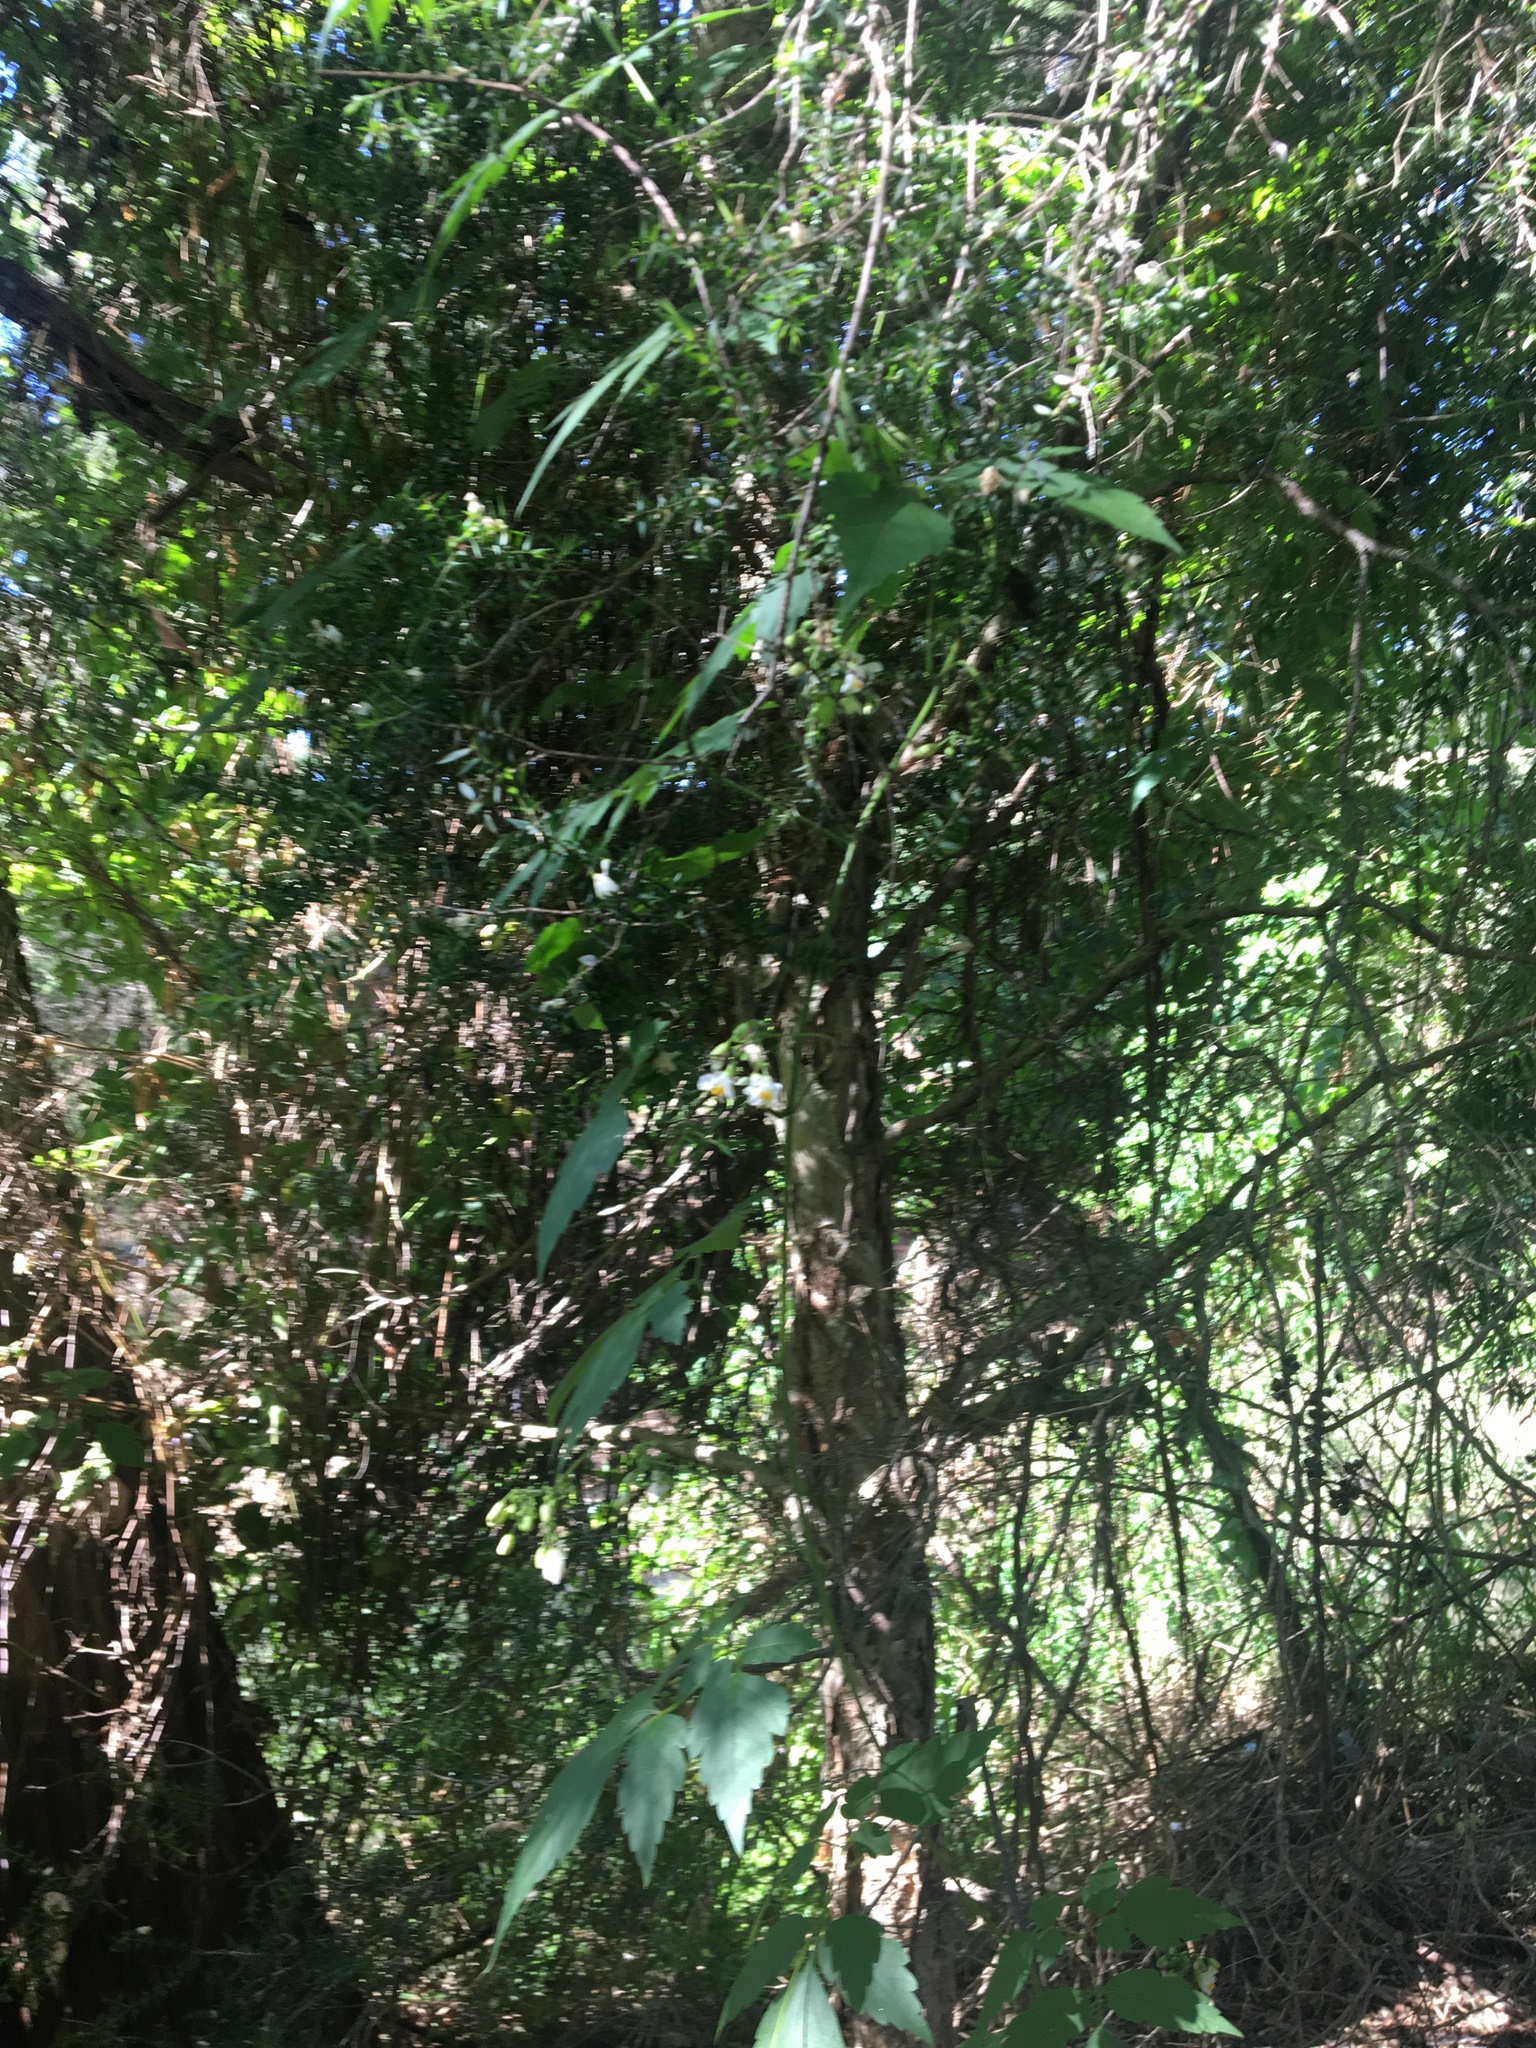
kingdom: Plantae
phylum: Tracheophyta
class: Magnoliopsida
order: Sapindales
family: Sapindaceae
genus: Cardiospermum
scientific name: Cardiospermum grandiflorum
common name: Balloon vine
